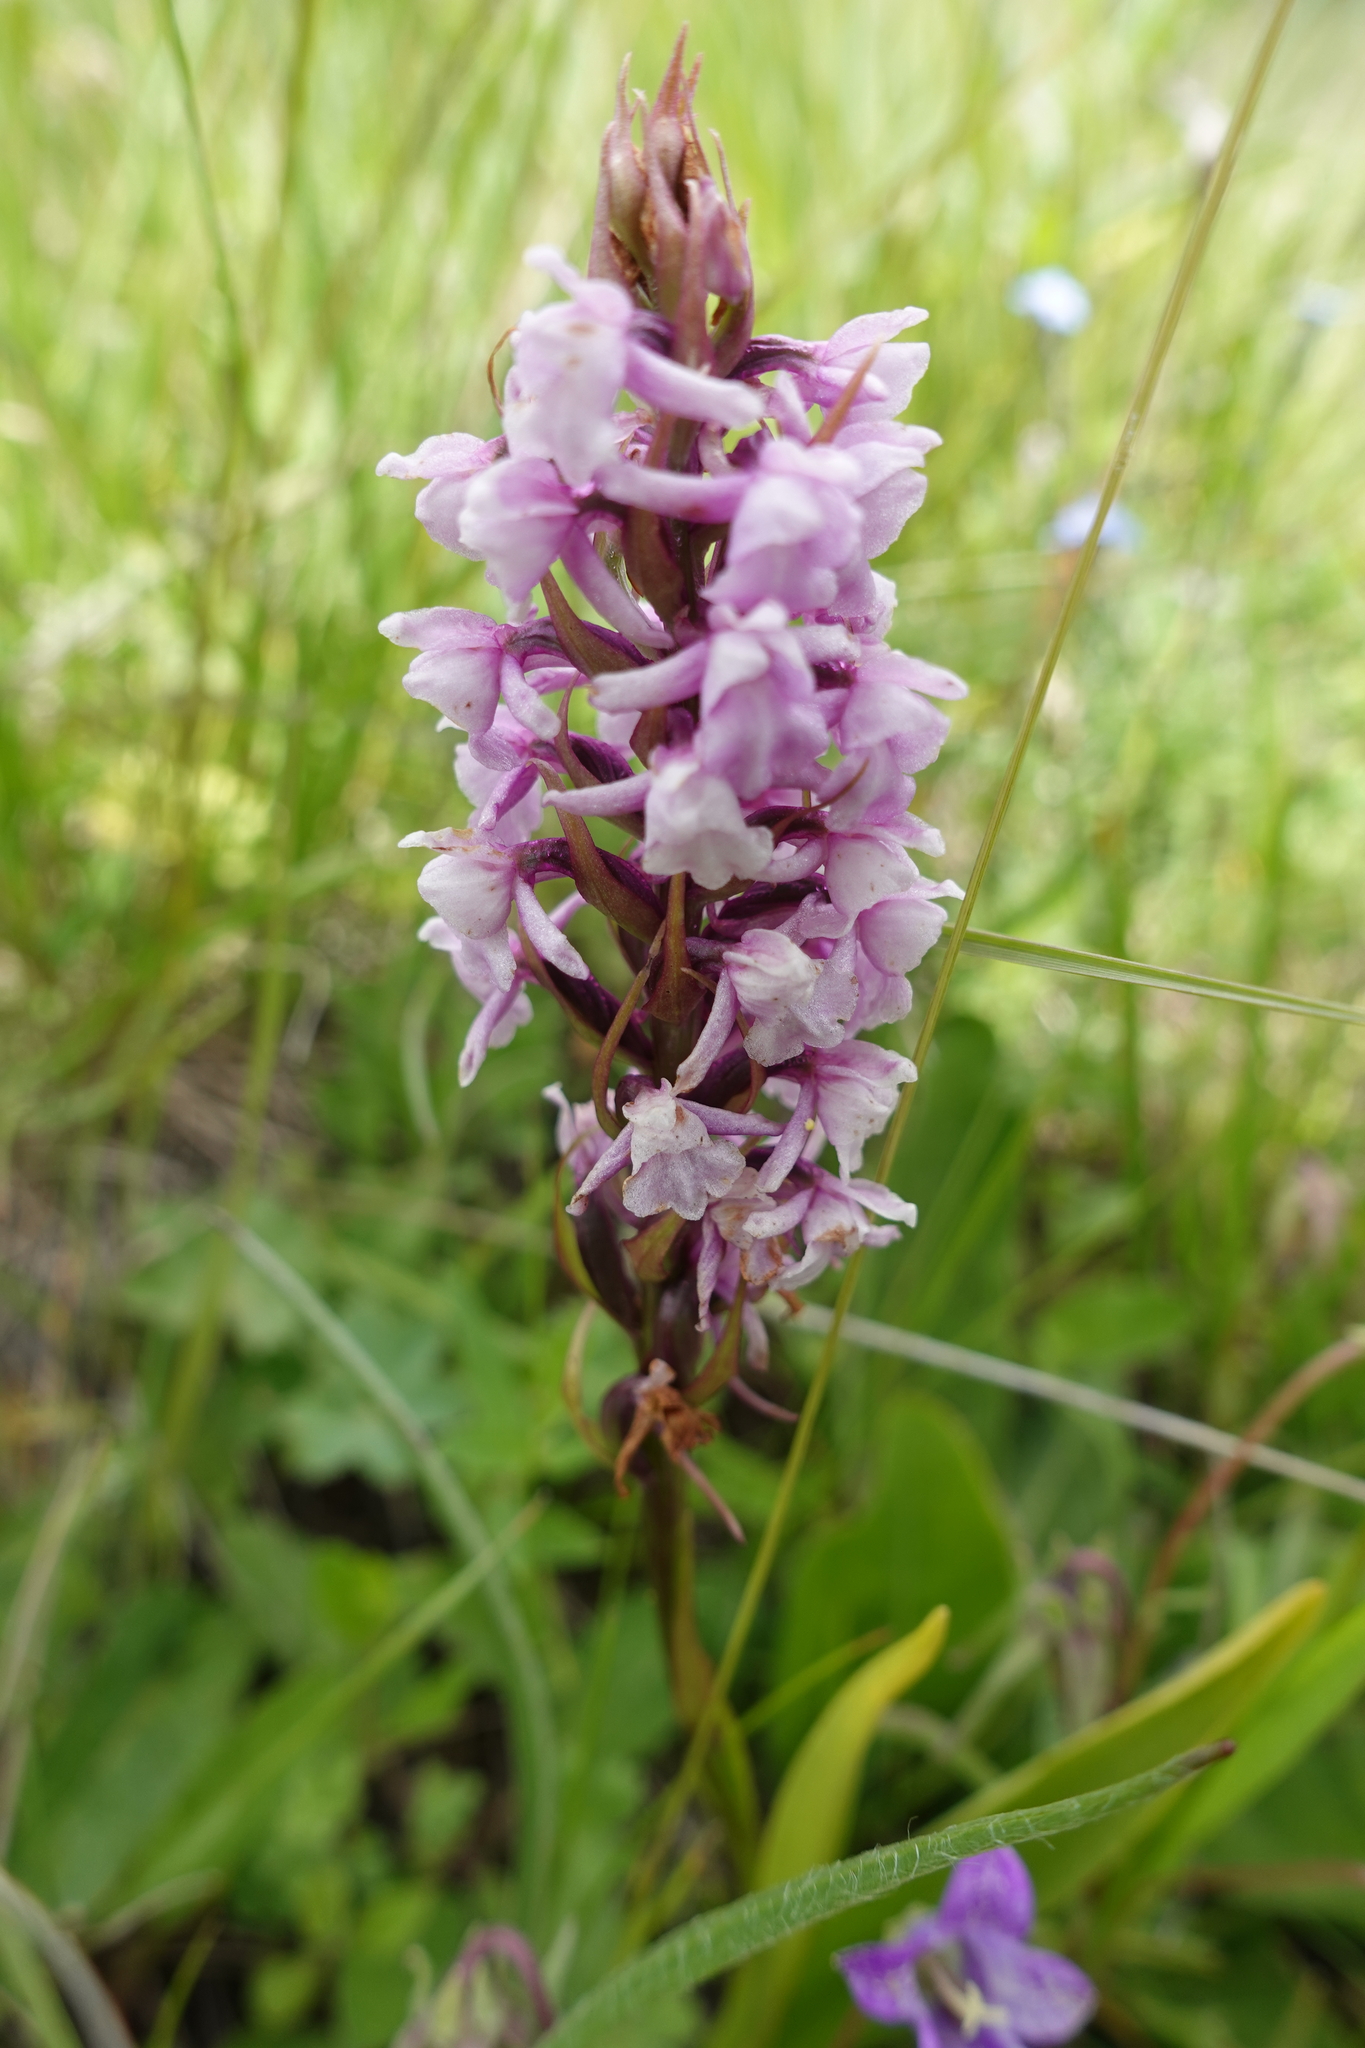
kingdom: Plantae
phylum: Tracheophyta
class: Liliopsida
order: Asparagales
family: Orchidaceae
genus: Gymnadenia
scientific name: Gymnadenia conopsea
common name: Fragrant orchid
